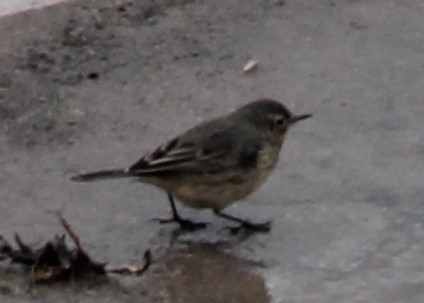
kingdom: Animalia
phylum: Chordata
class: Aves
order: Passeriformes
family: Motacillidae
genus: Anthus
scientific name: Anthus rubescens
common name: Buff-bellied pipit
